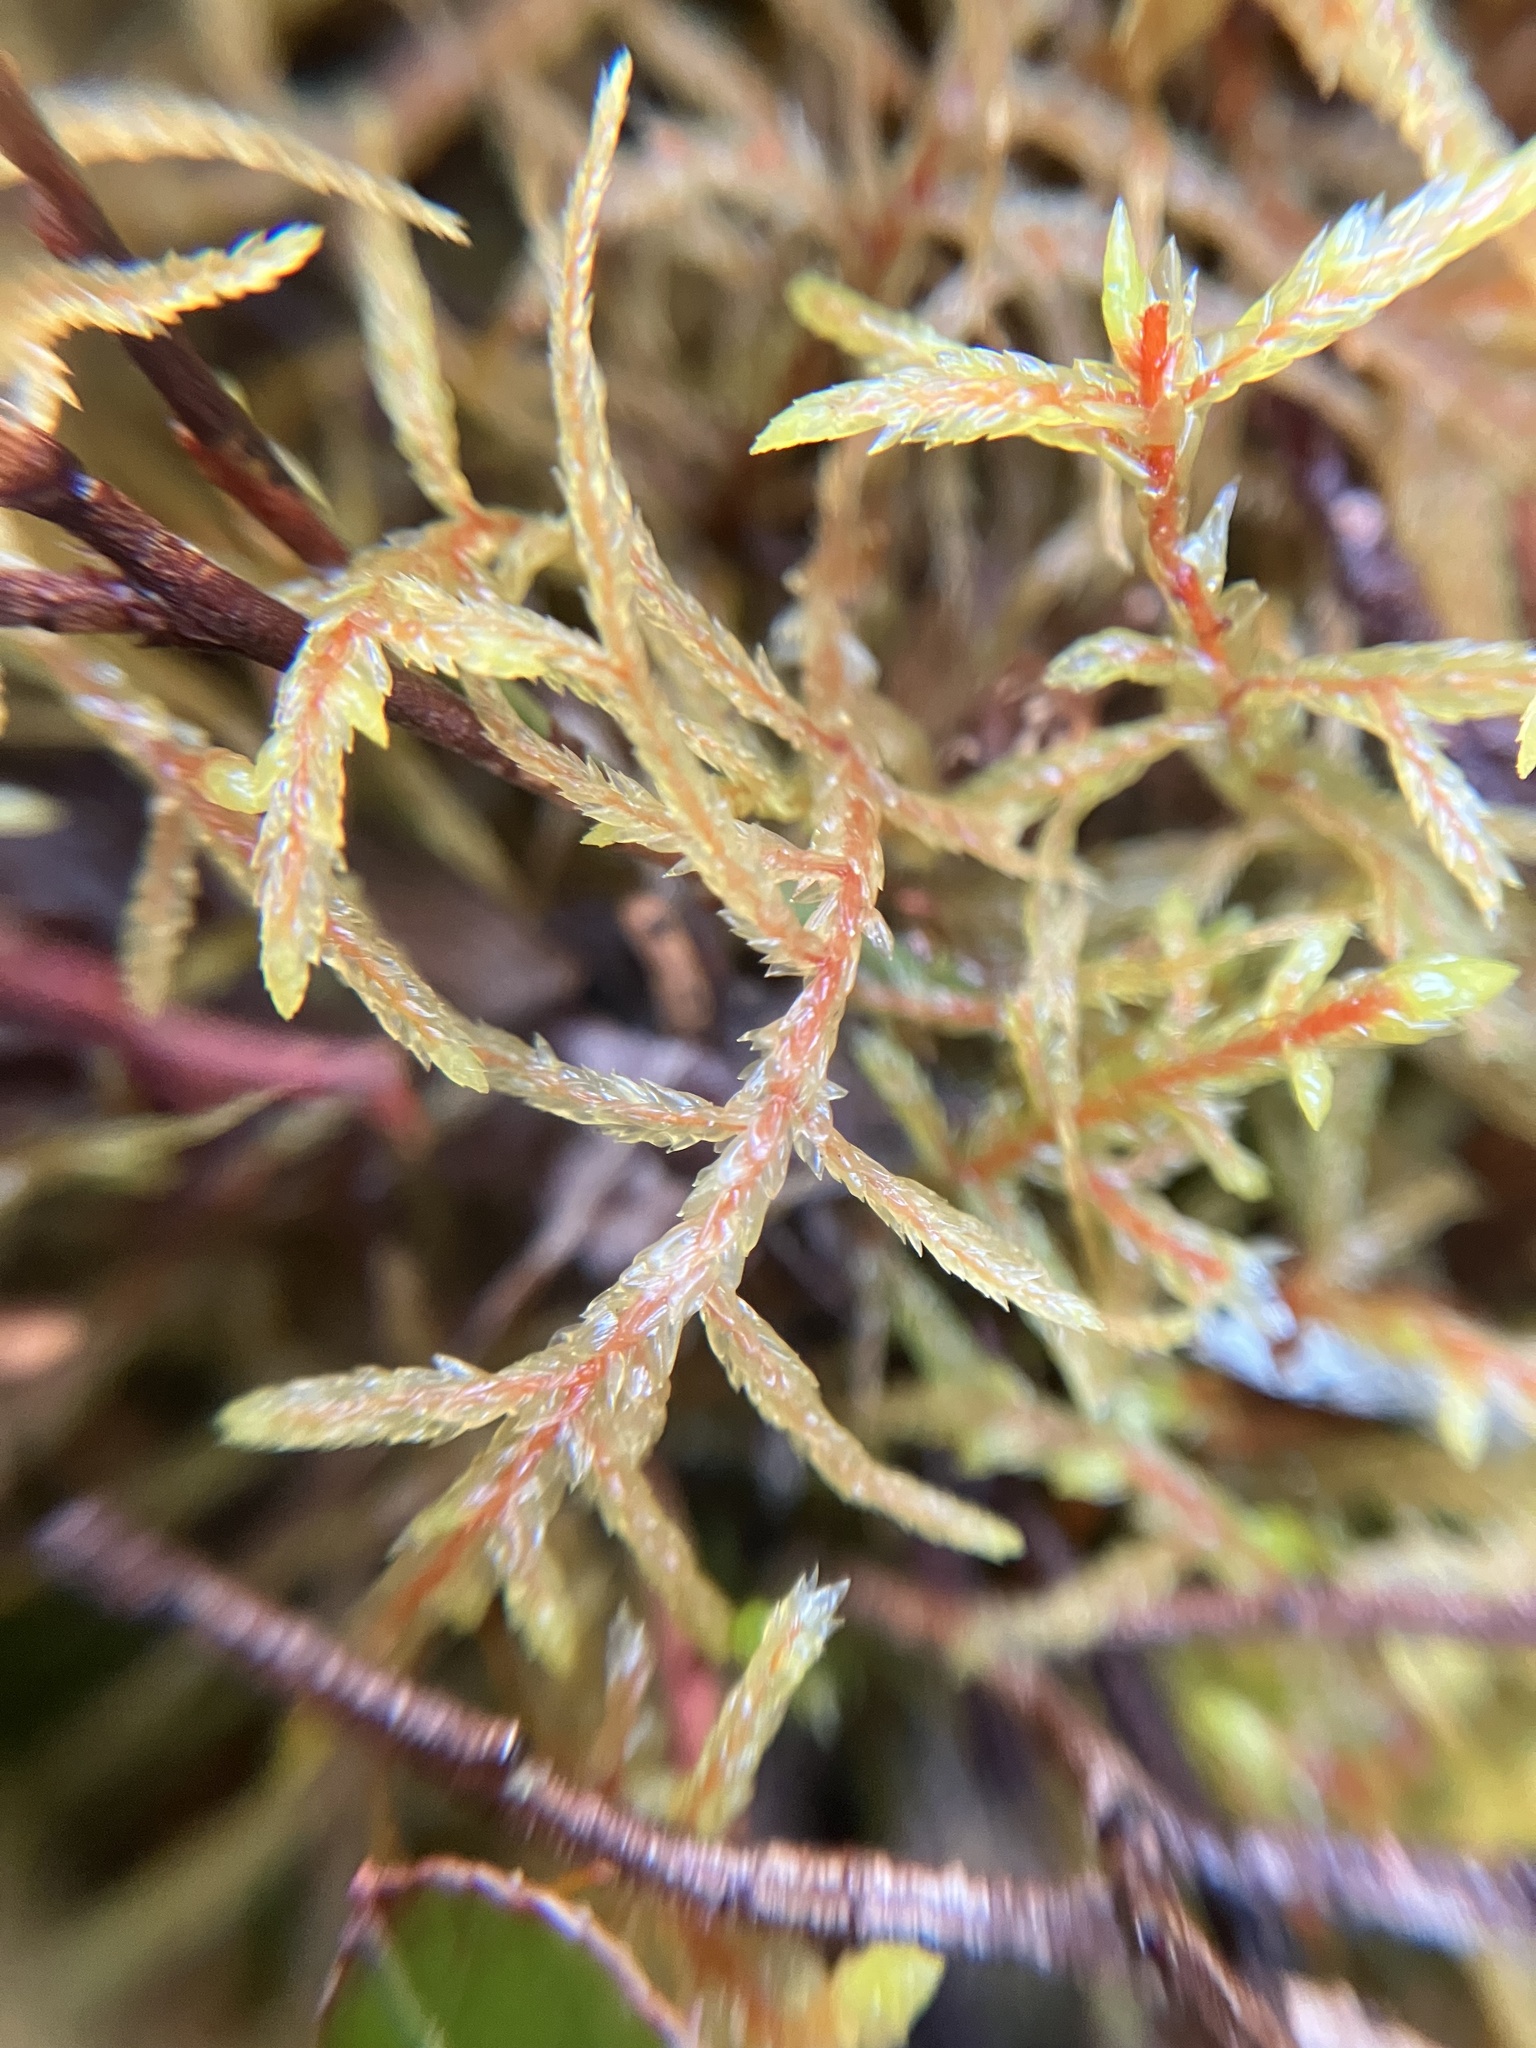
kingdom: Plantae
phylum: Bryophyta
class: Bryopsida
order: Hypnales
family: Hylocomiaceae
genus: Pleurozium
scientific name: Pleurozium schreberi
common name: Red-stemmed feather moss
